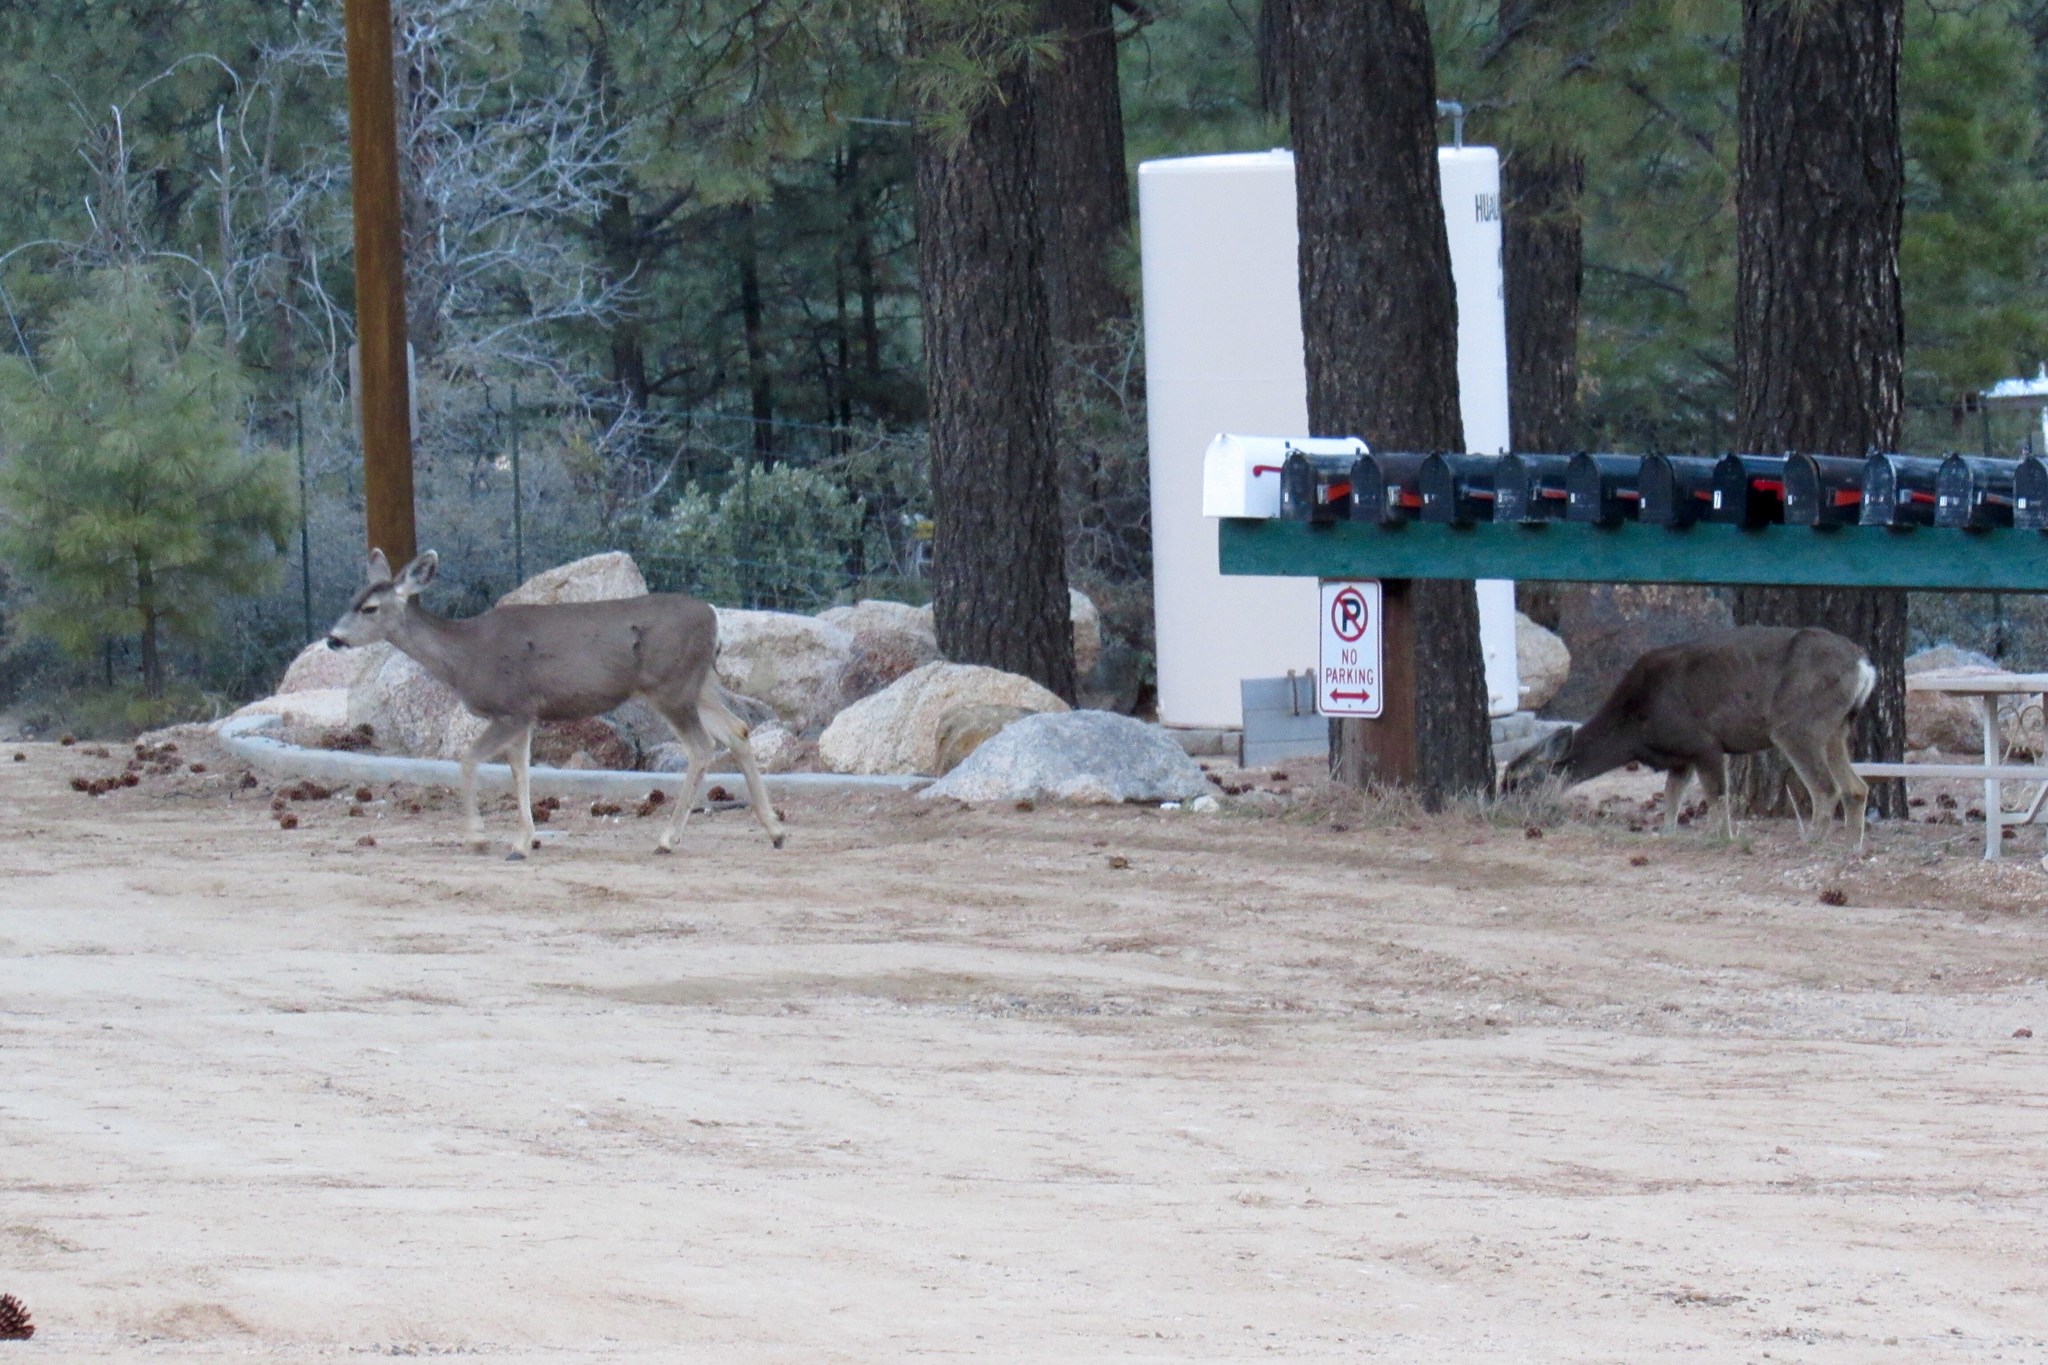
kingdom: Animalia
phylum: Chordata
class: Mammalia
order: Artiodactyla
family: Cervidae
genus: Odocoileus
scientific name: Odocoileus hemionus
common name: Mule deer
